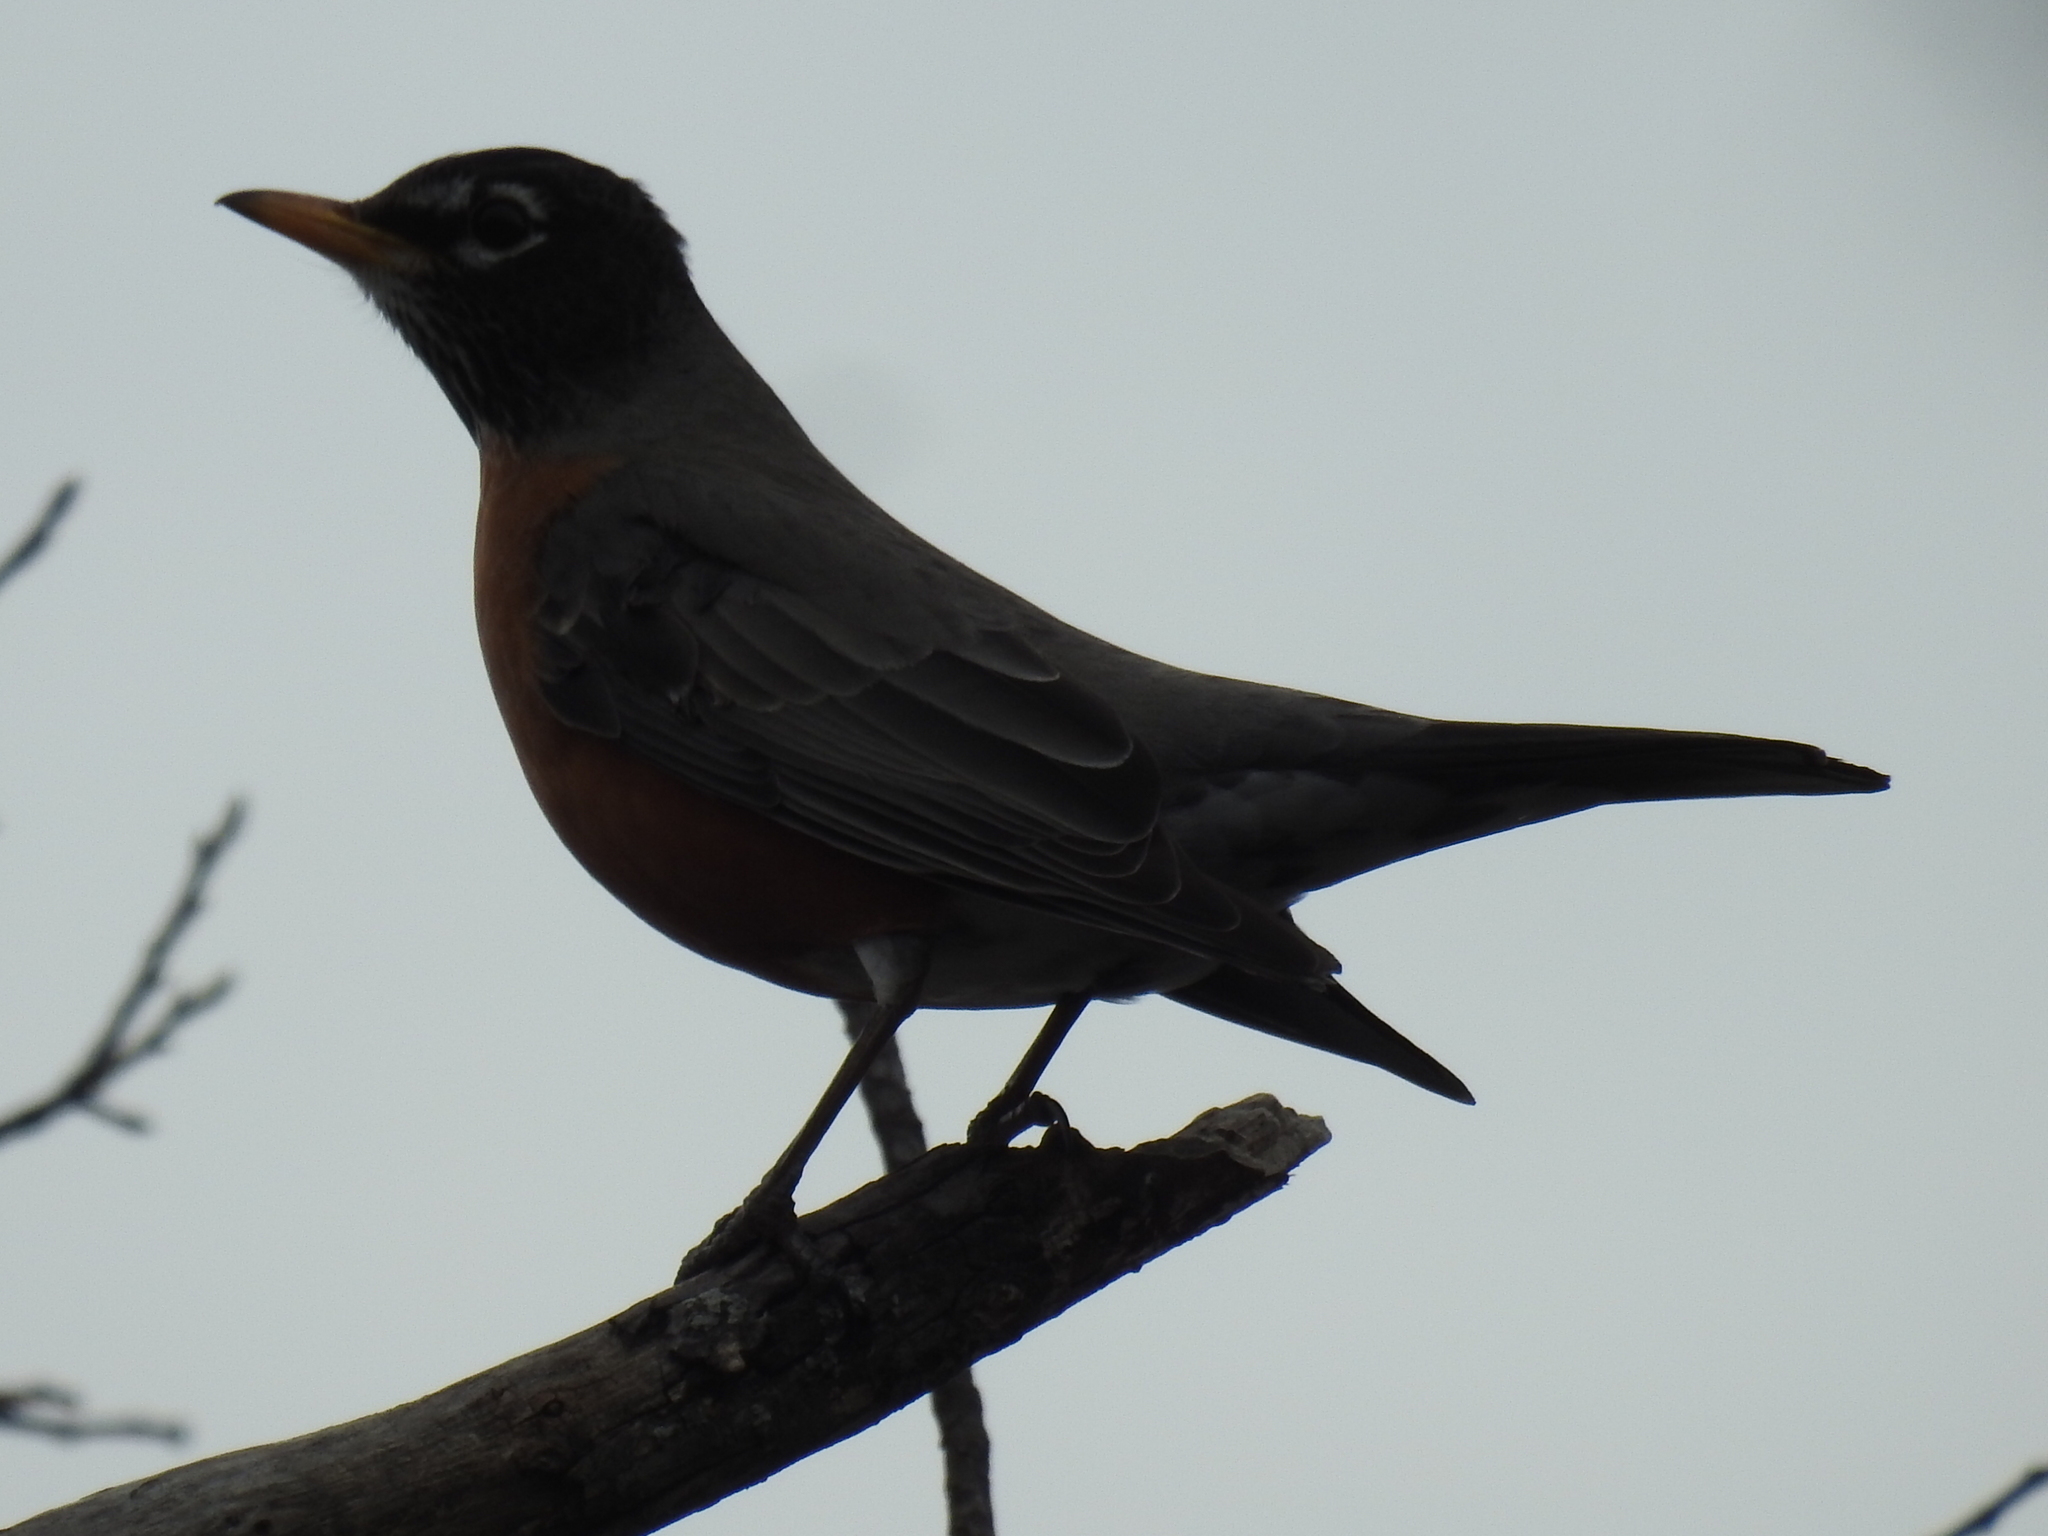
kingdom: Animalia
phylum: Chordata
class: Aves
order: Passeriformes
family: Turdidae
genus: Turdus
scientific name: Turdus migratorius
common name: American robin
